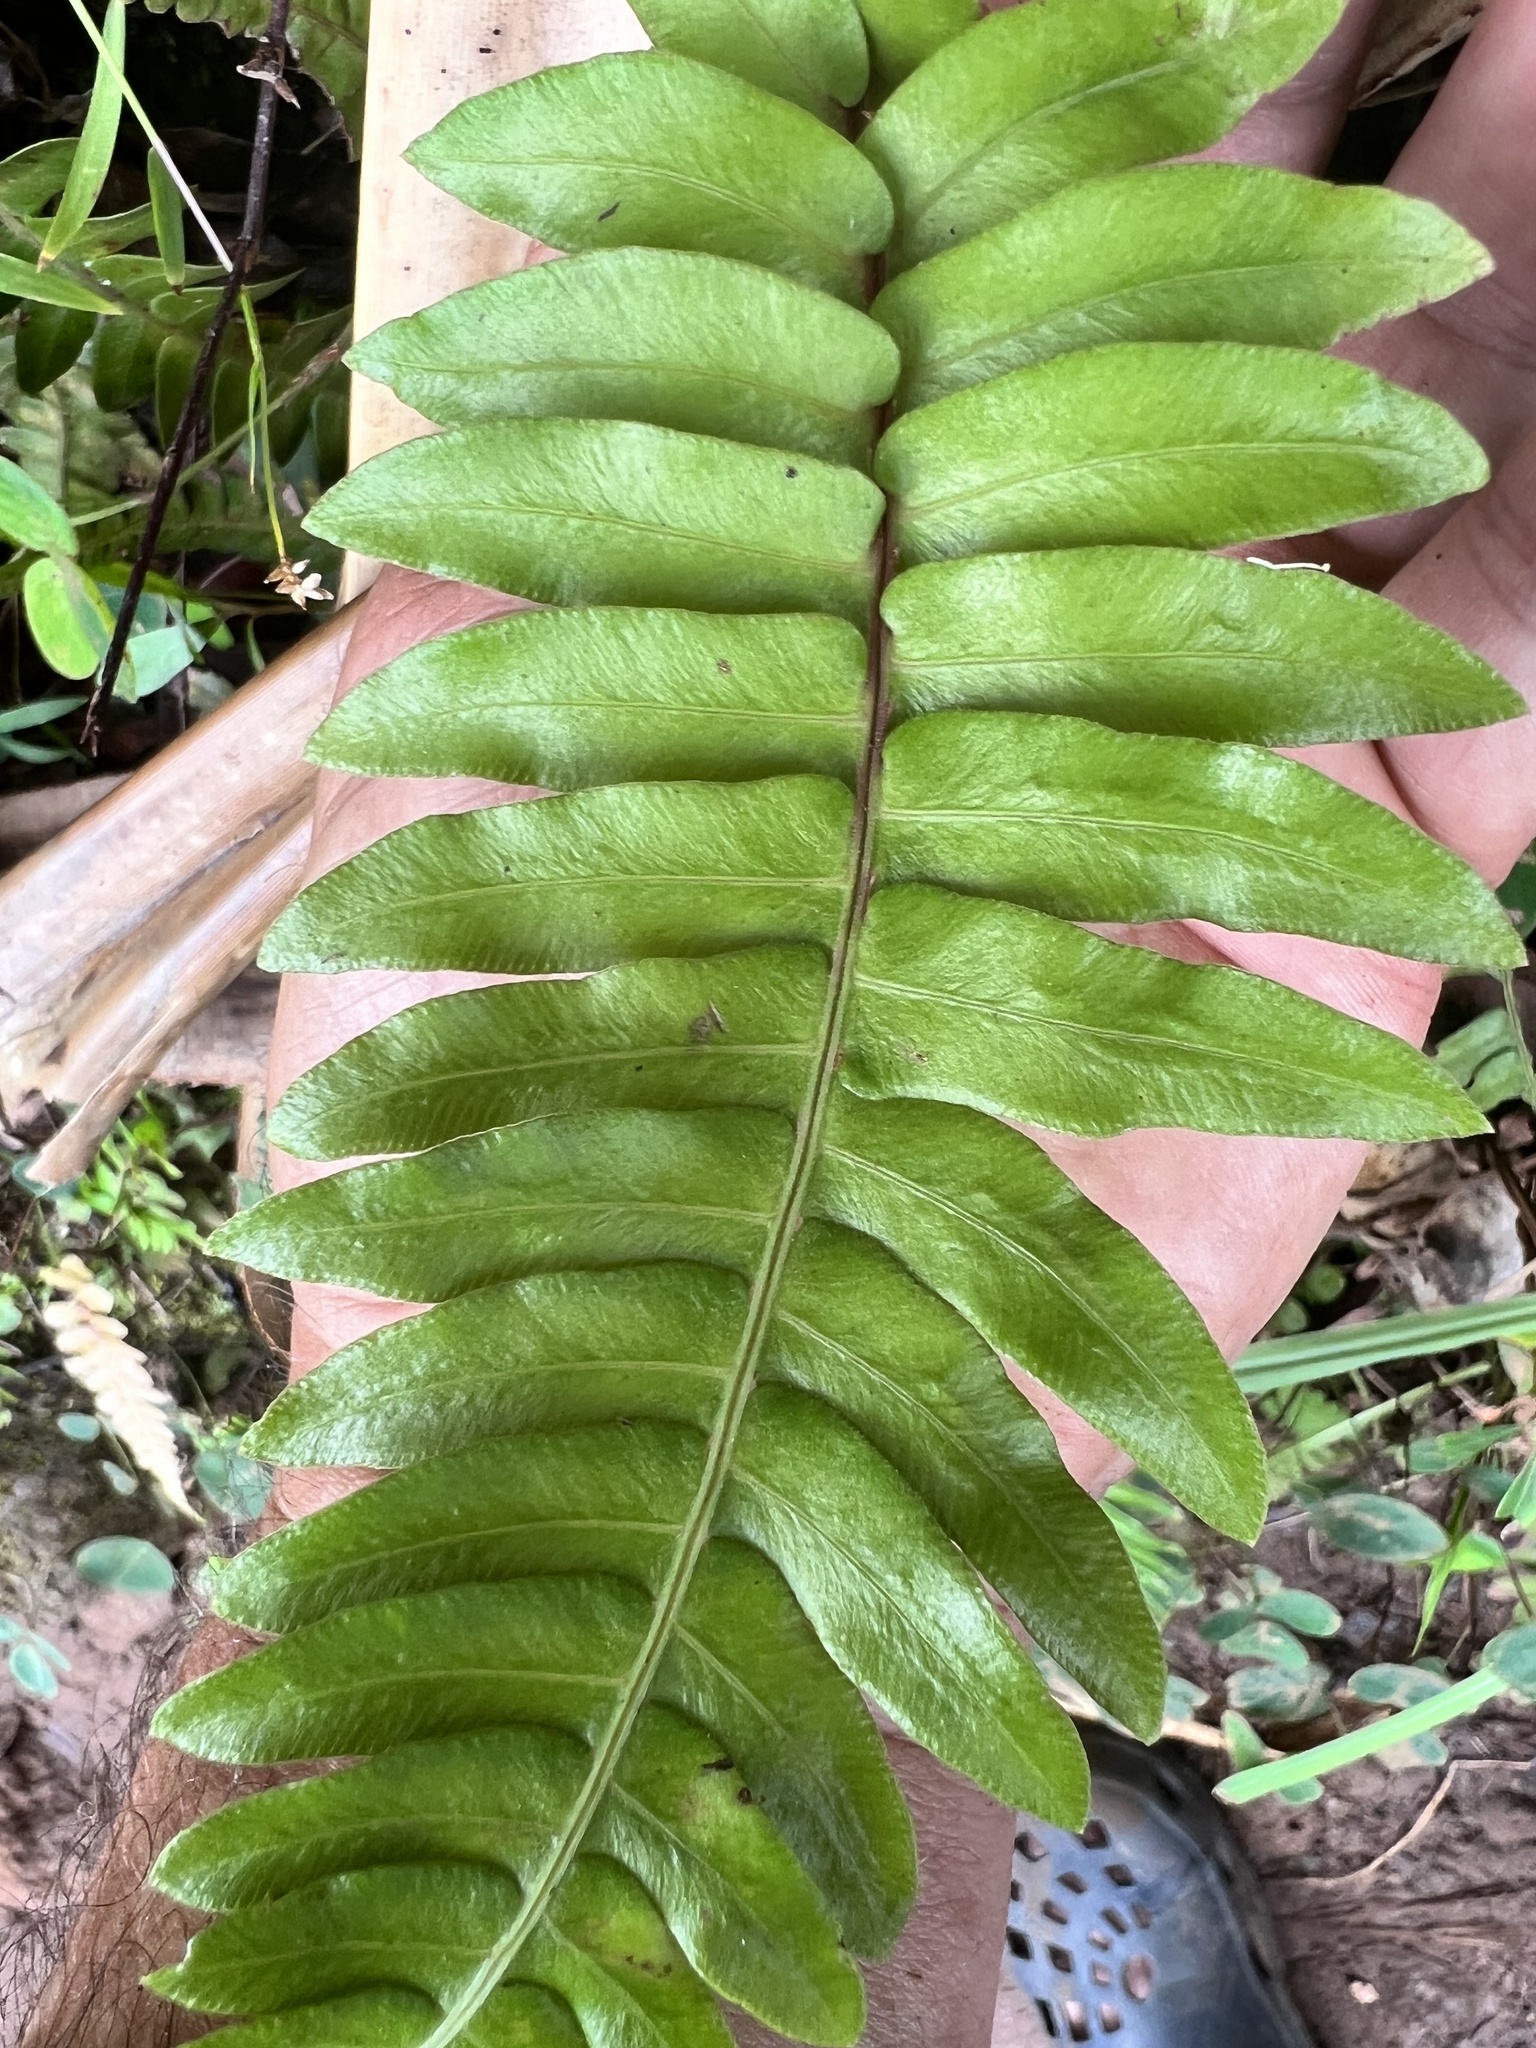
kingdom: Plantae
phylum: Tracheophyta
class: Polypodiopsida
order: Polypodiales
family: Blechnaceae
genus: Blechnum
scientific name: Blechnum appendiculatum
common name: Palm fern
